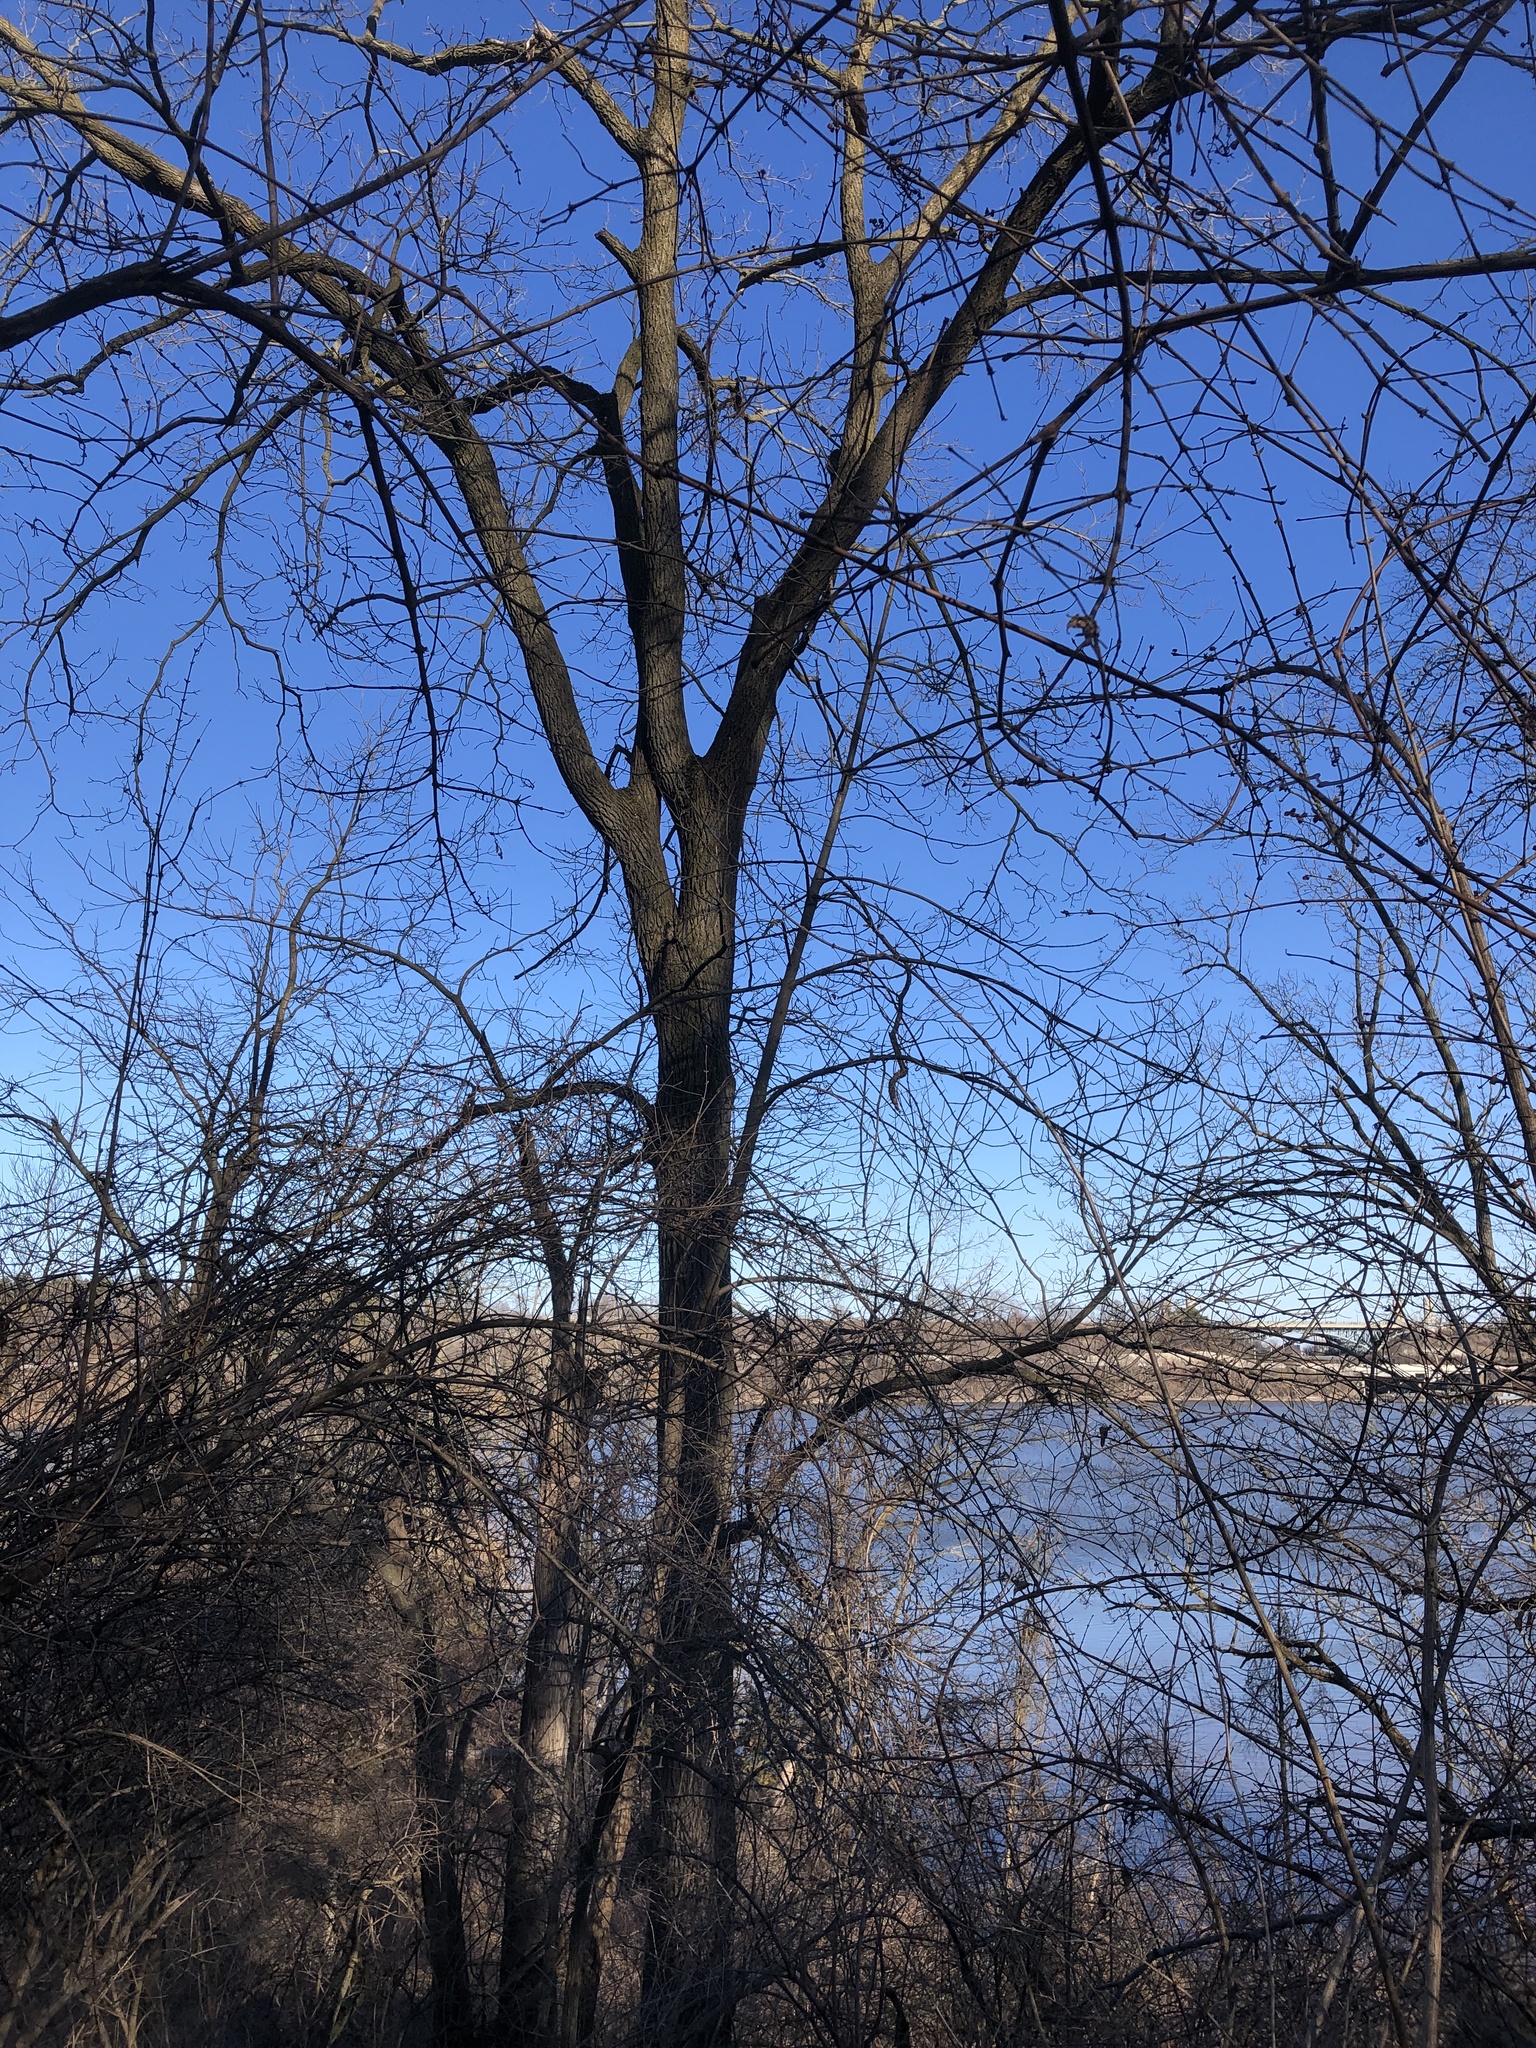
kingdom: Plantae
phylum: Tracheophyta
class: Magnoliopsida
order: Fagales
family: Juglandaceae
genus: Juglans
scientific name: Juglans nigra
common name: Black walnut
